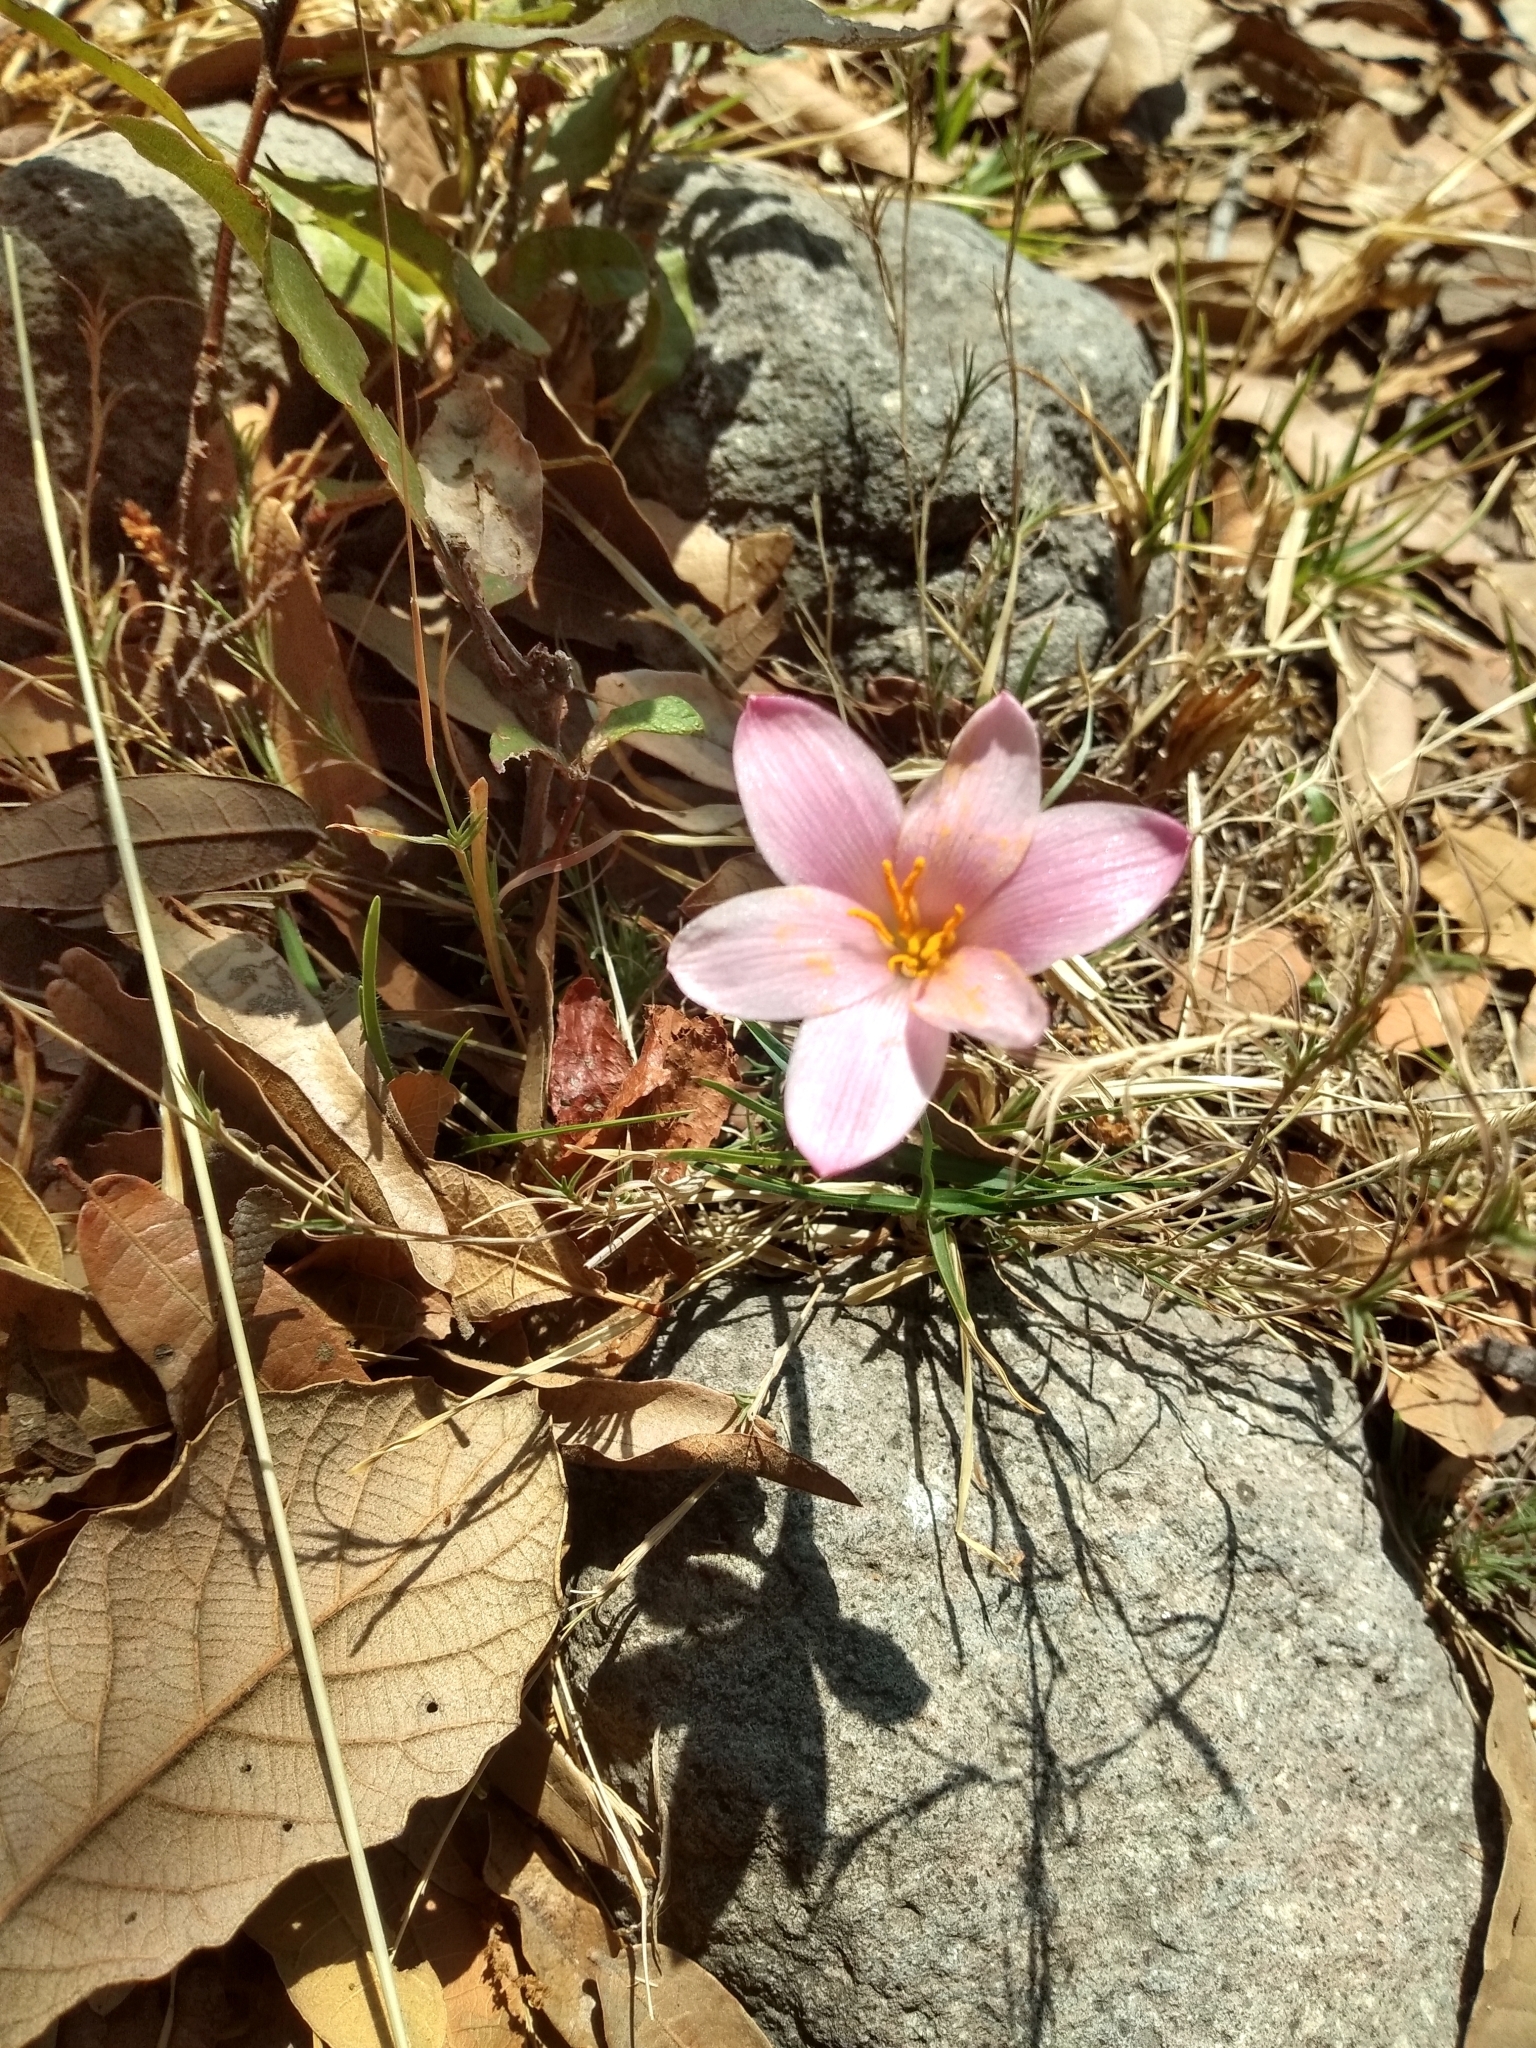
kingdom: Plantae
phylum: Tracheophyta
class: Liliopsida
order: Asparagales
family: Amaryllidaceae
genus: Zephyranthes
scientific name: Zephyranthes fosteri
